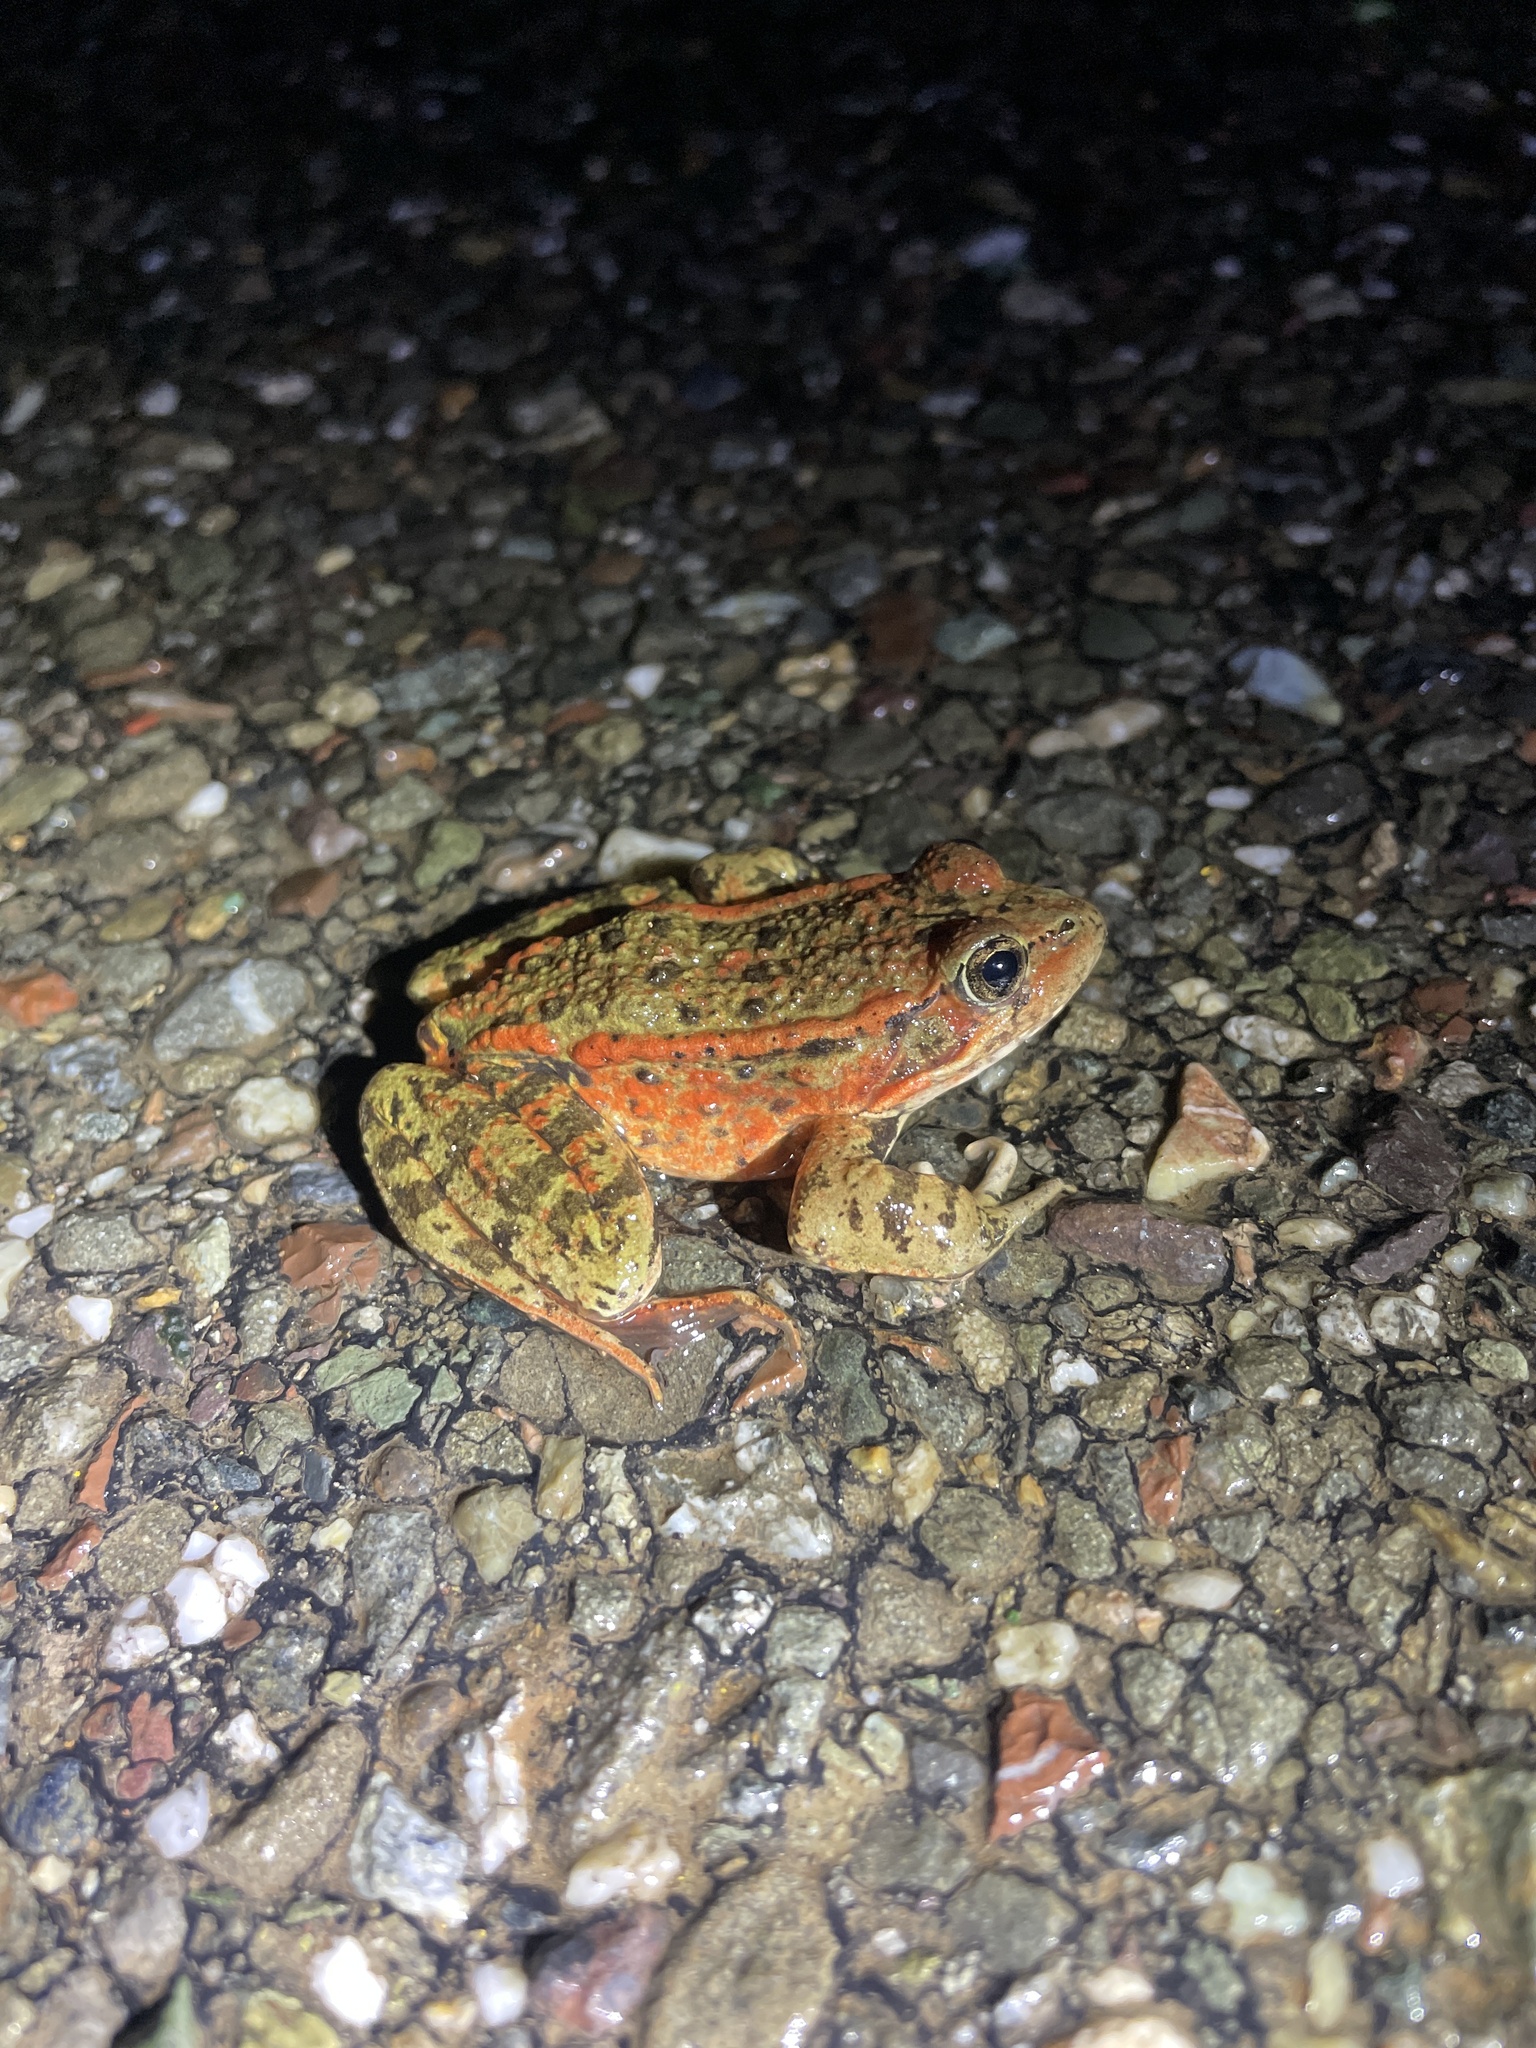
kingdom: Animalia
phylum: Chordata
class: Amphibia
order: Anura
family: Ranidae
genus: Rana
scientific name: Rana draytonii
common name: California red-legged frog
